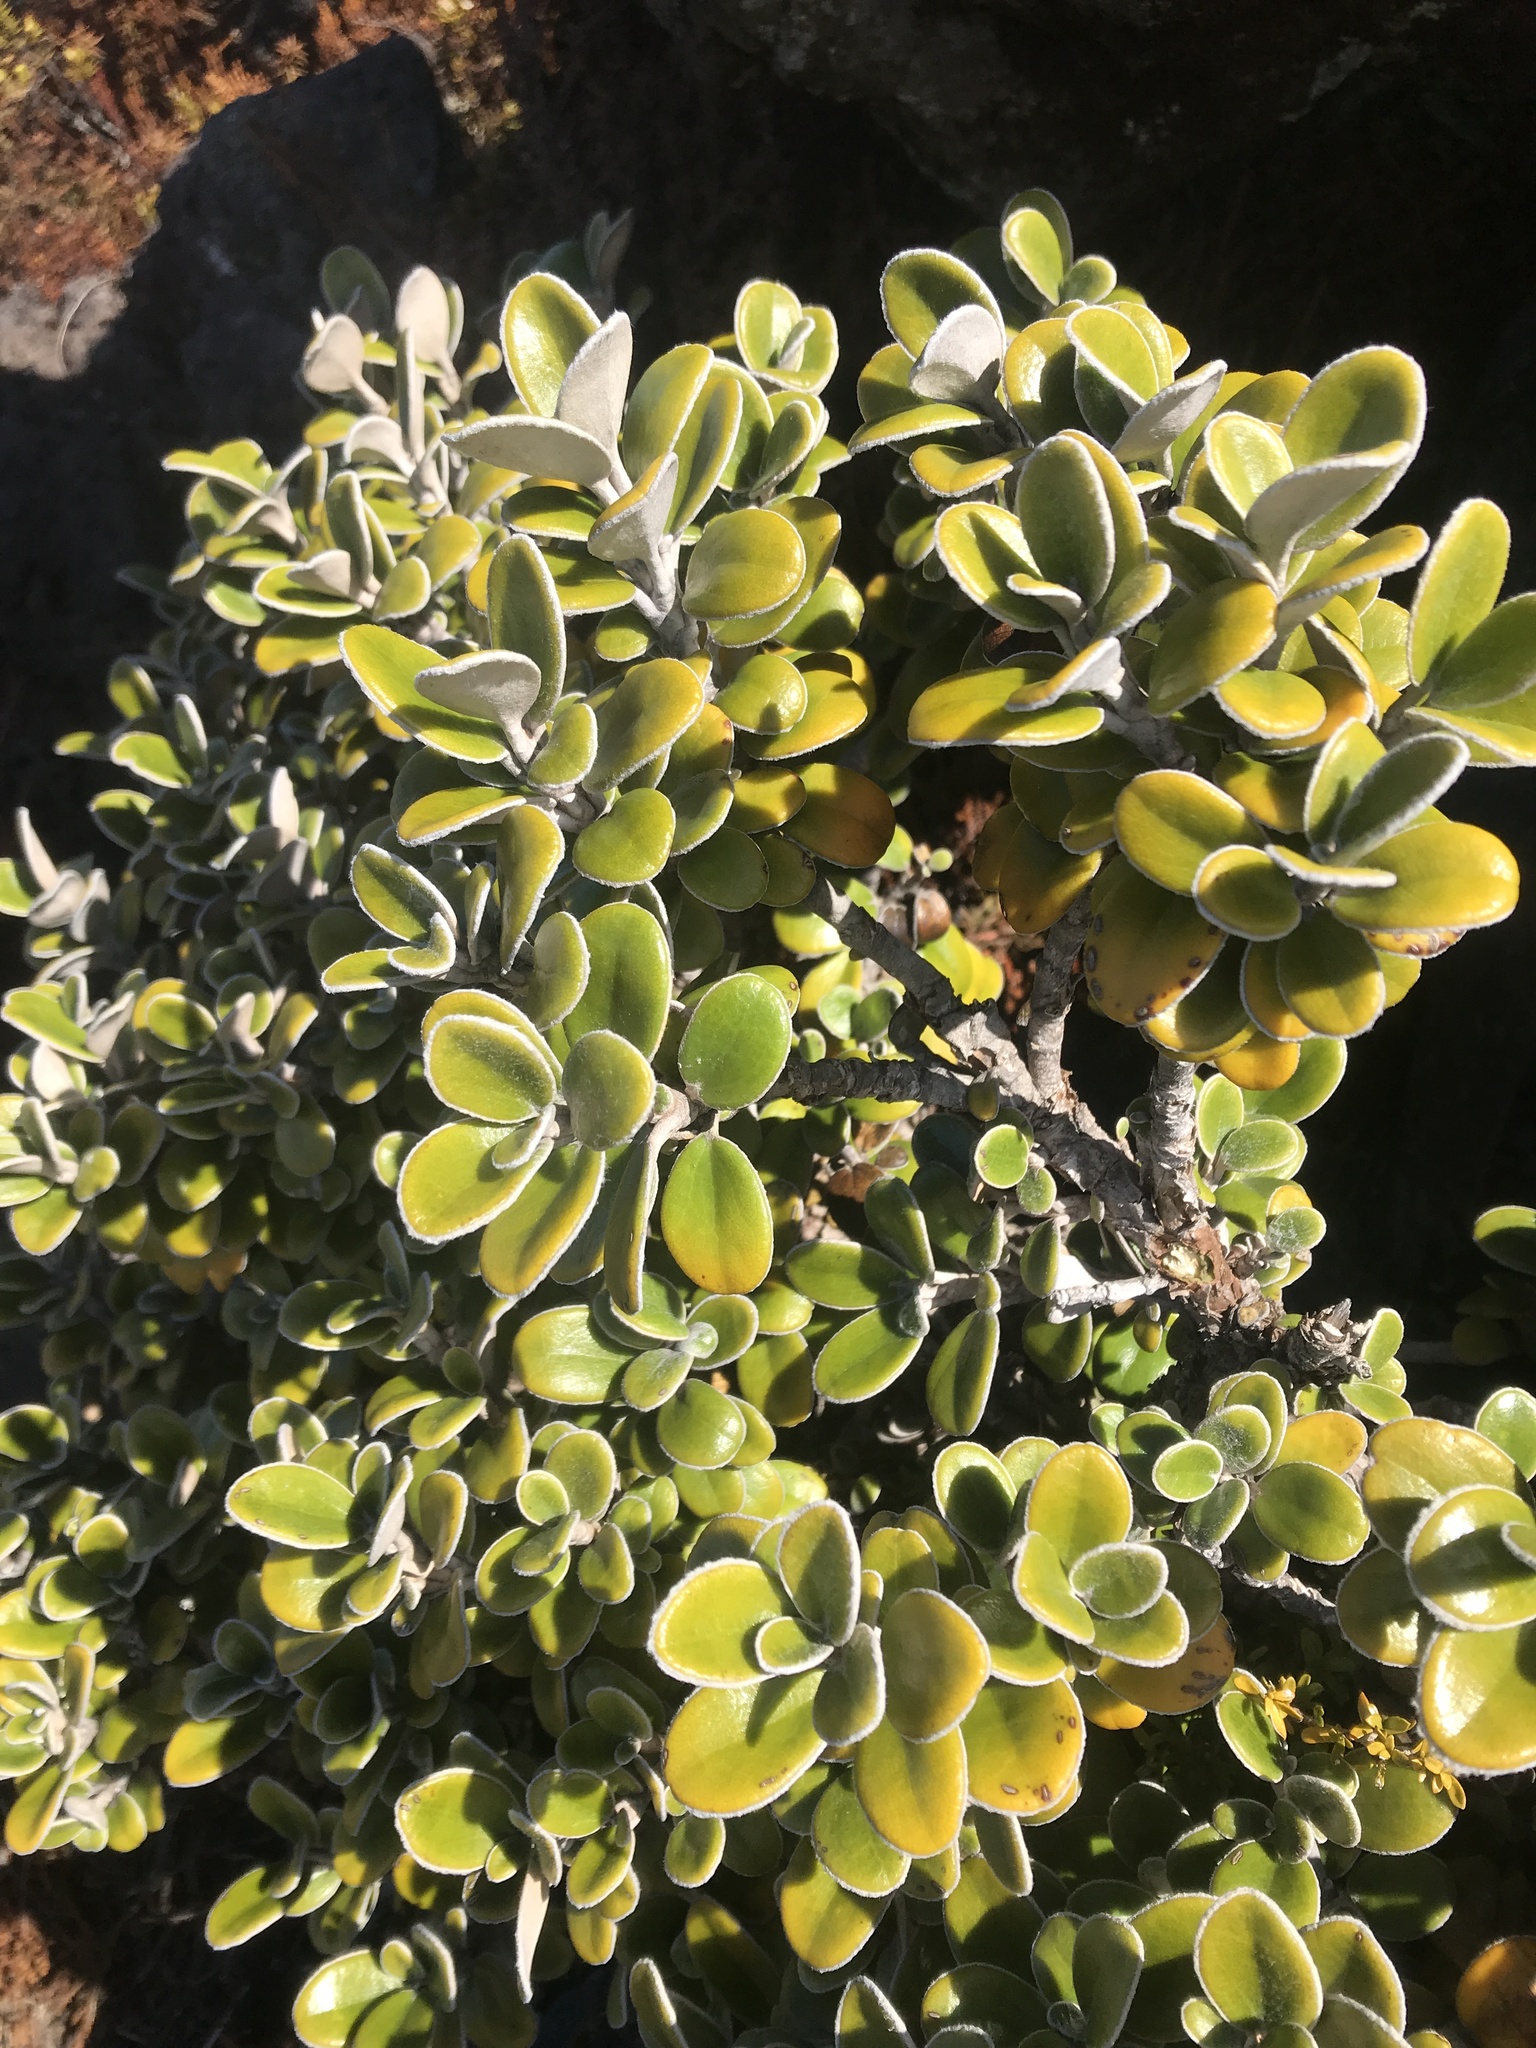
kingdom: Plantae
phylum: Tracheophyta
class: Magnoliopsida
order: Asterales
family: Asteraceae
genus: Brachyglottis
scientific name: Brachyglottis bidwillii
